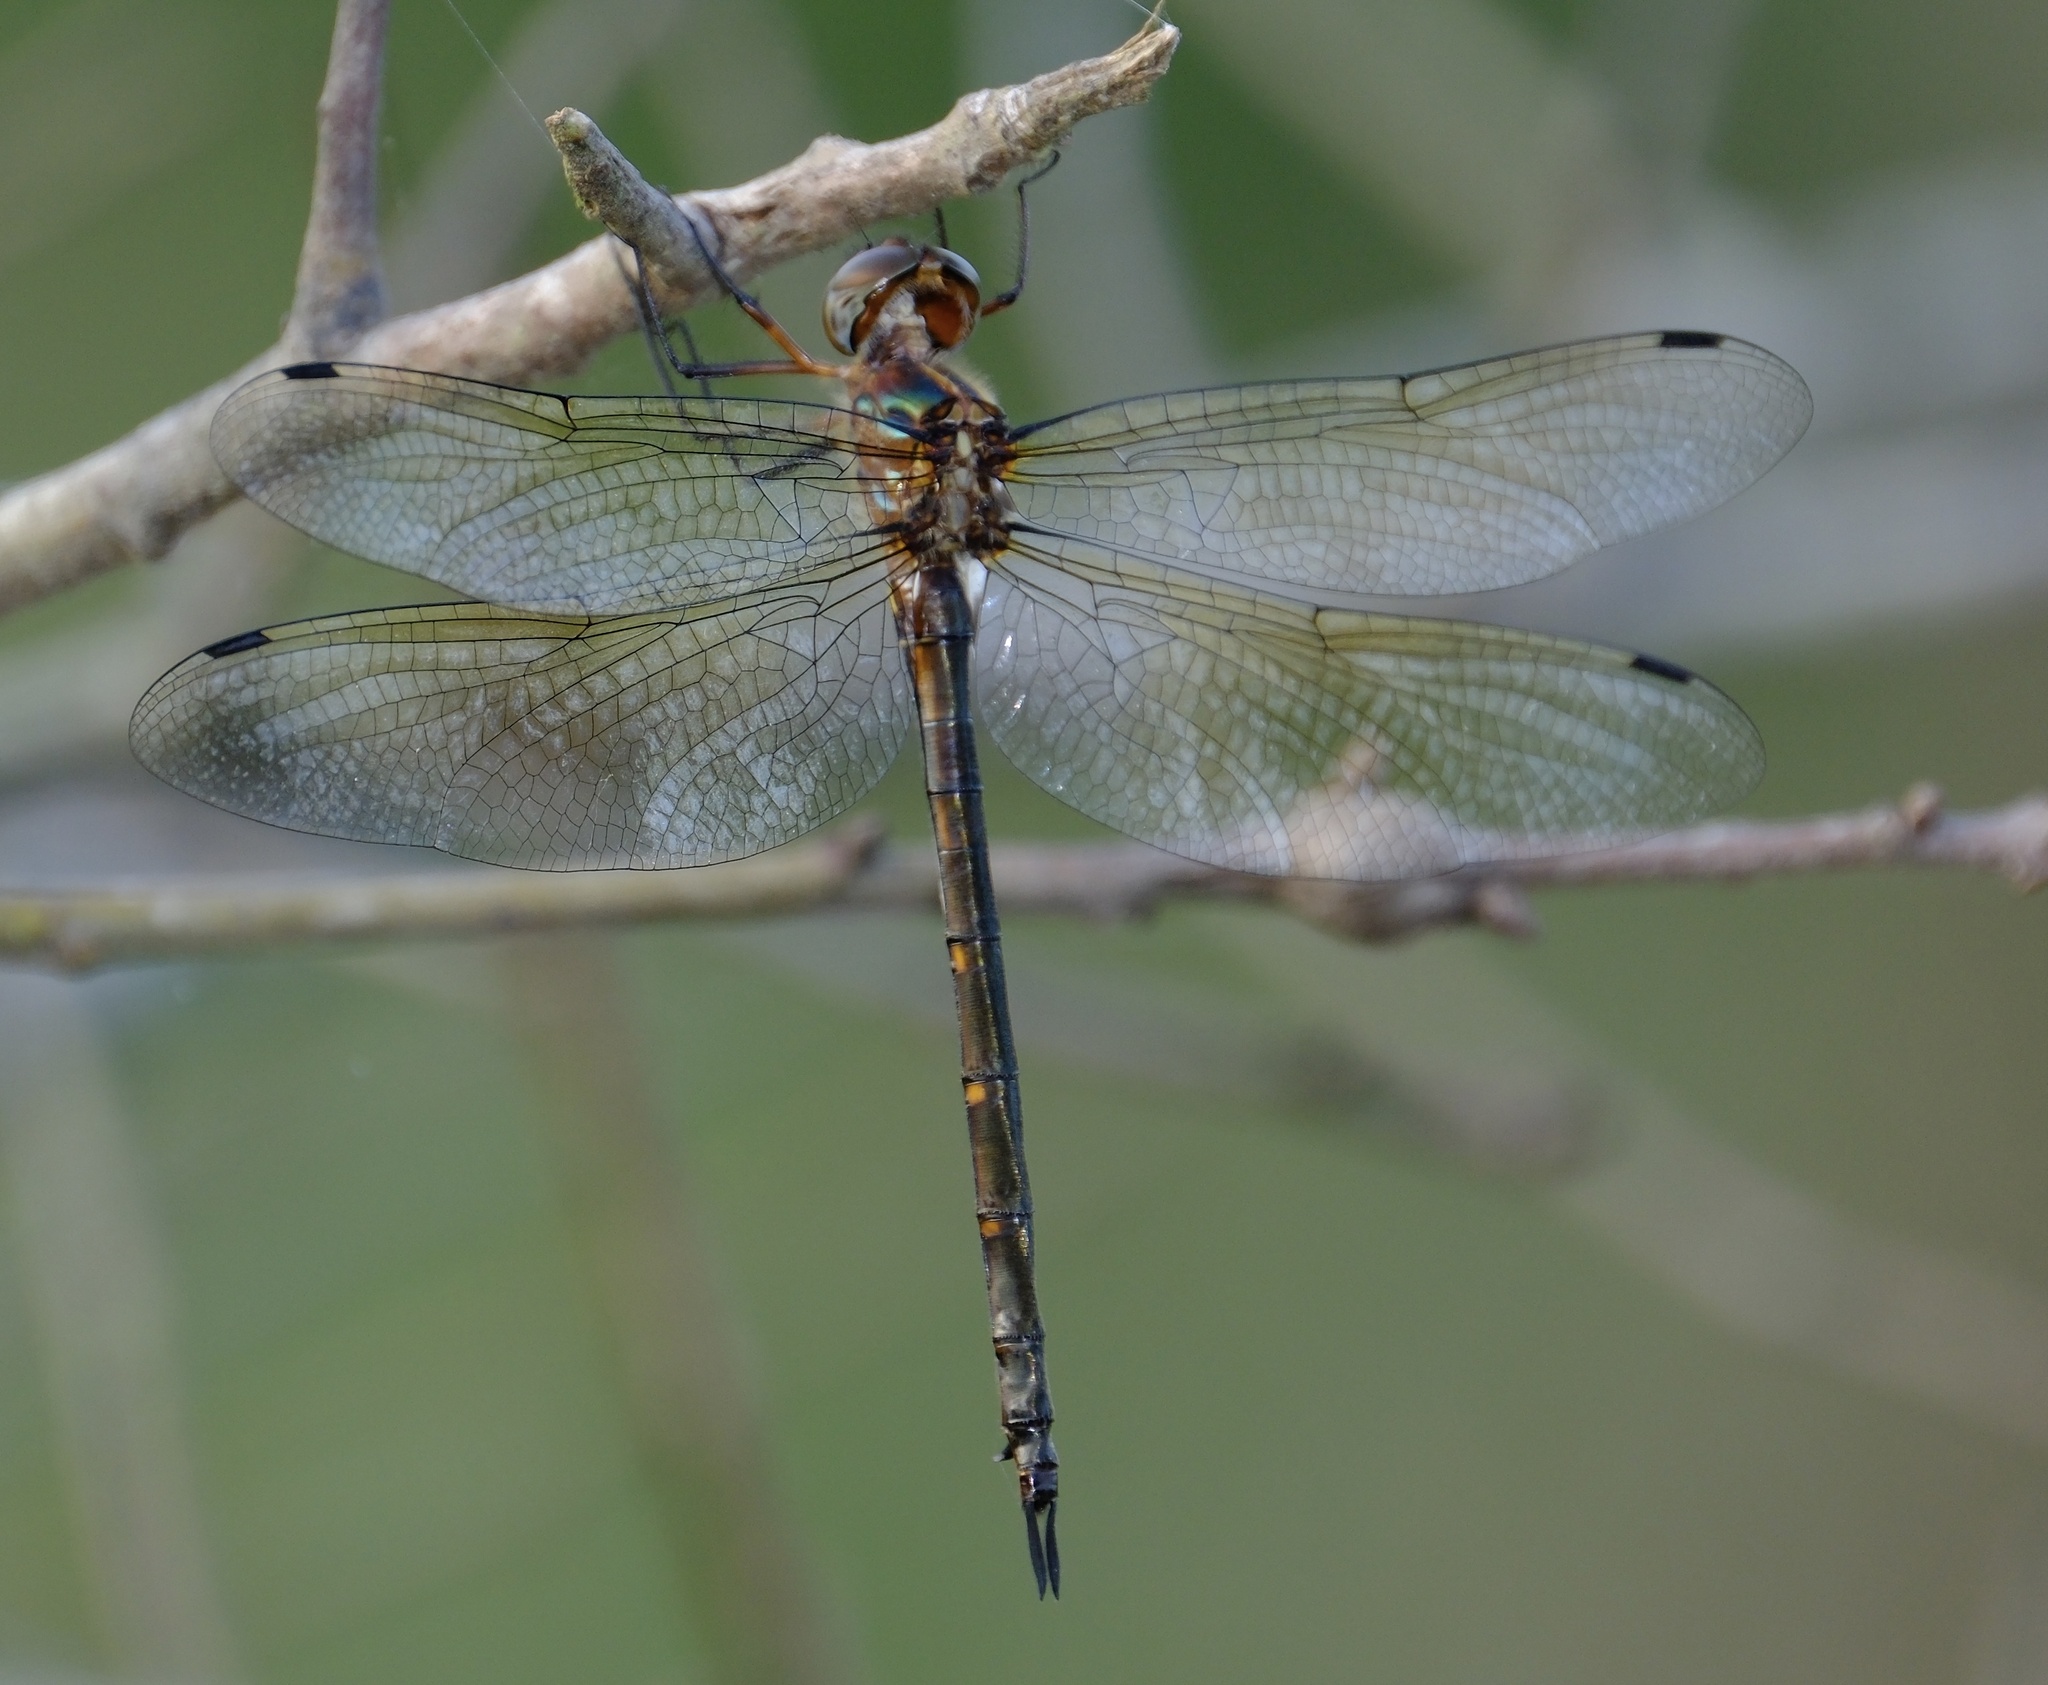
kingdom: Animalia
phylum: Arthropoda
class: Insecta
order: Odonata
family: Corduliidae
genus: Somatochlora
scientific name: Somatochlora linearis
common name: Mocha emerald
